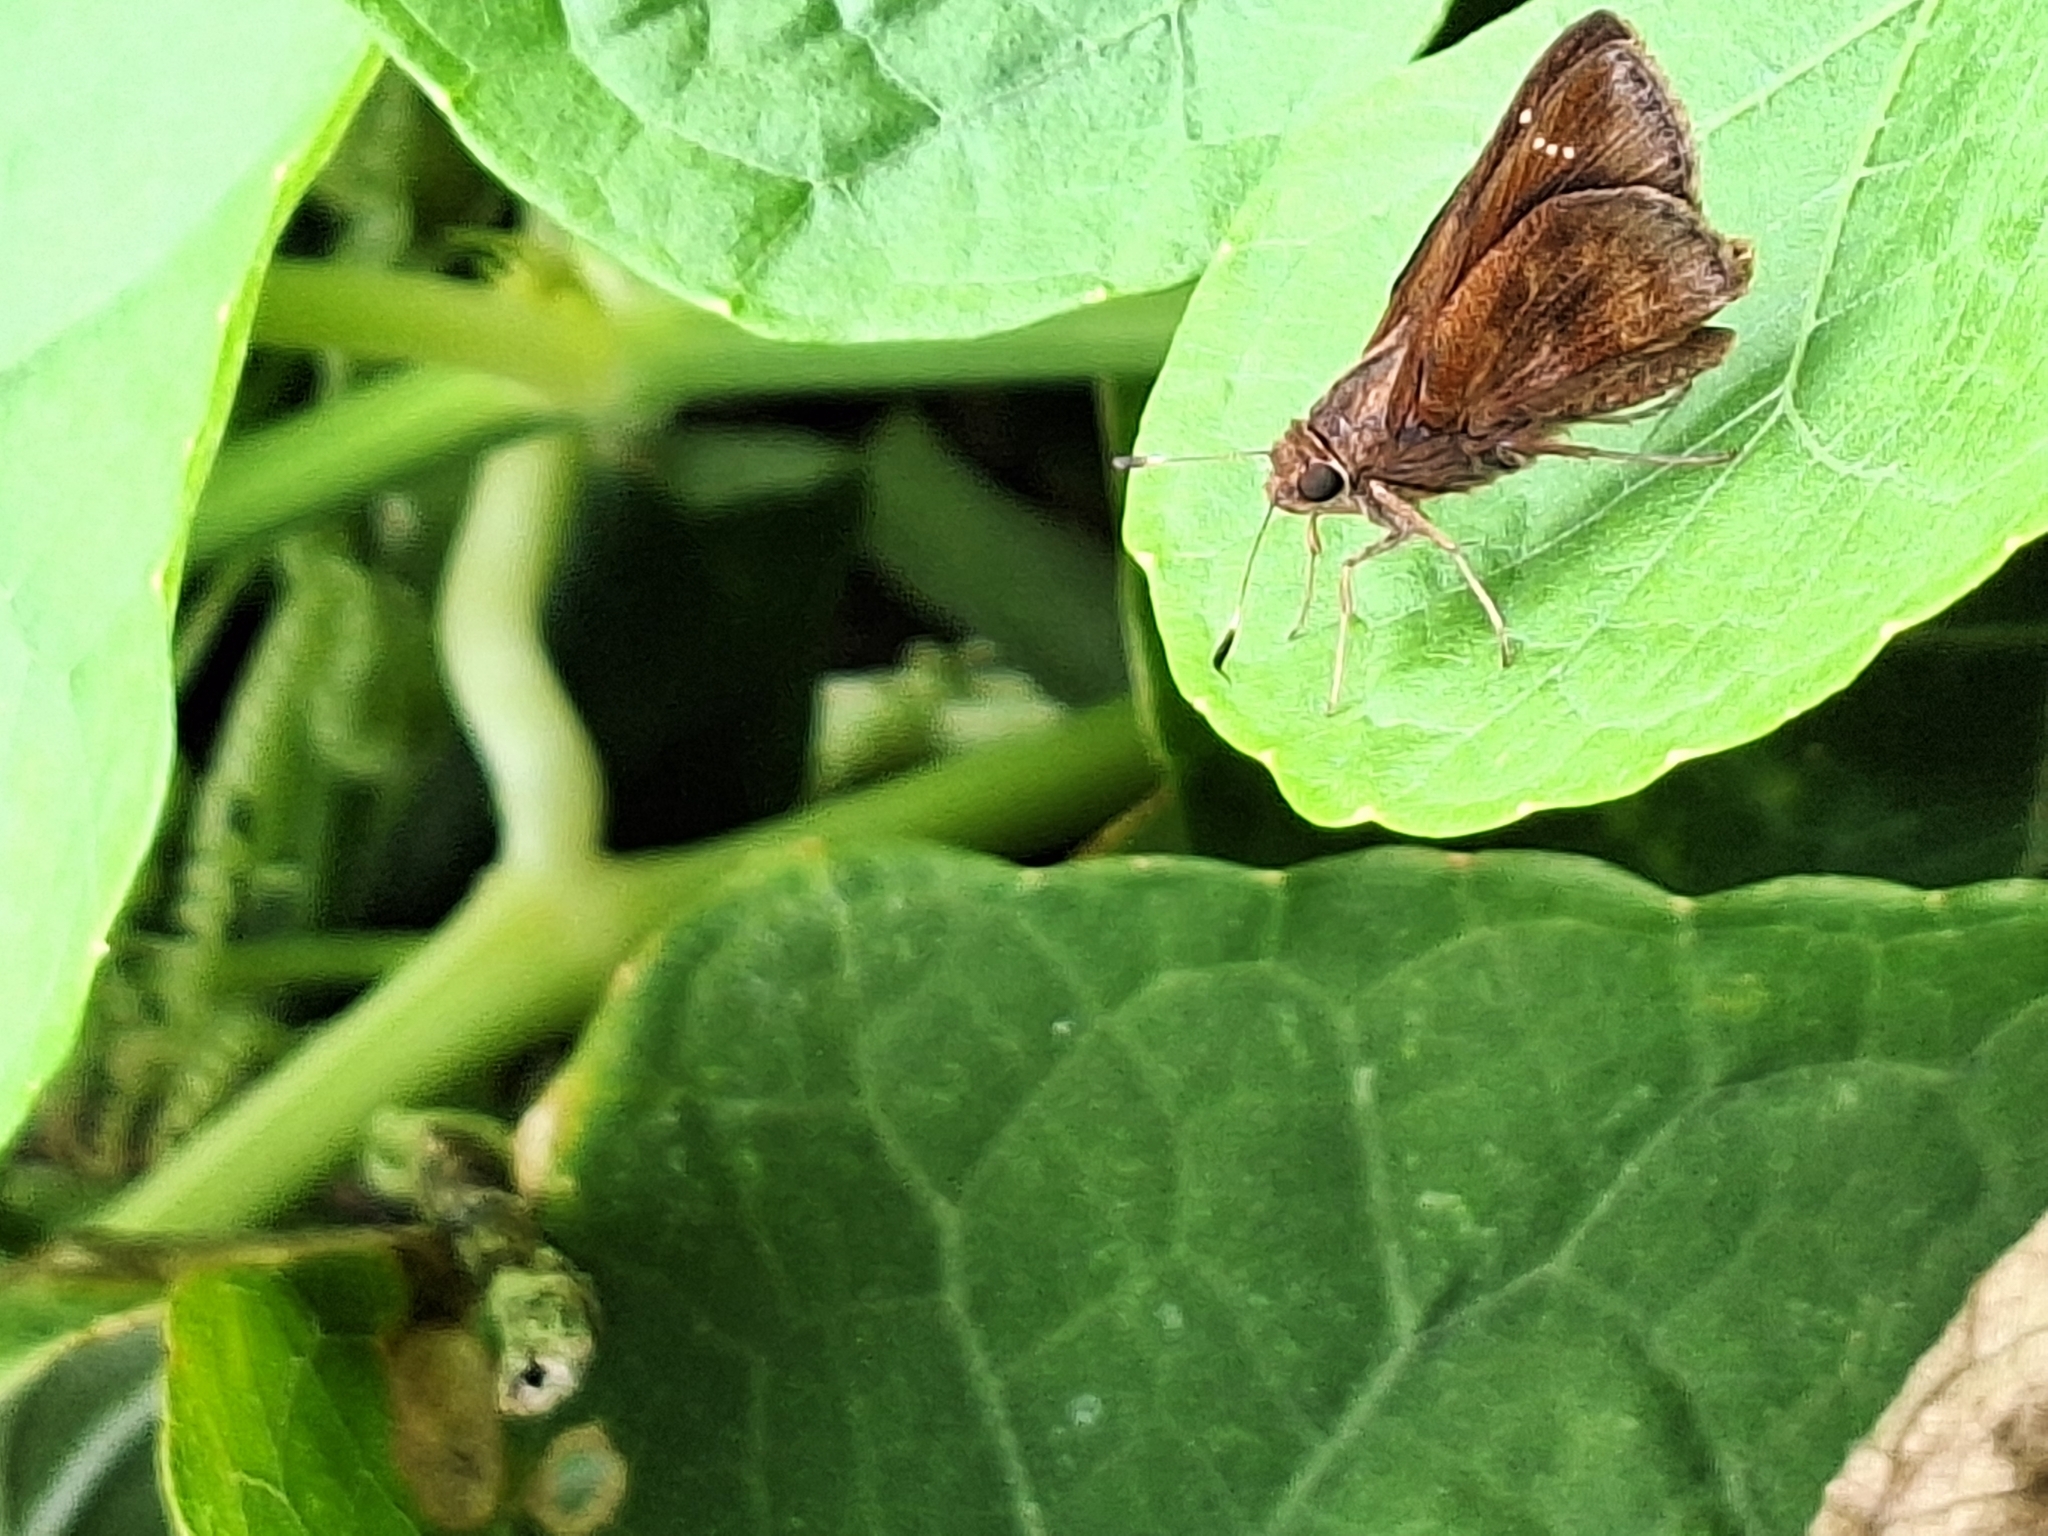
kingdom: Animalia
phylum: Arthropoda
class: Insecta
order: Lepidoptera
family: Hesperiidae
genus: Quinta
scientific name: Quinta cannae
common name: Canna skipper
